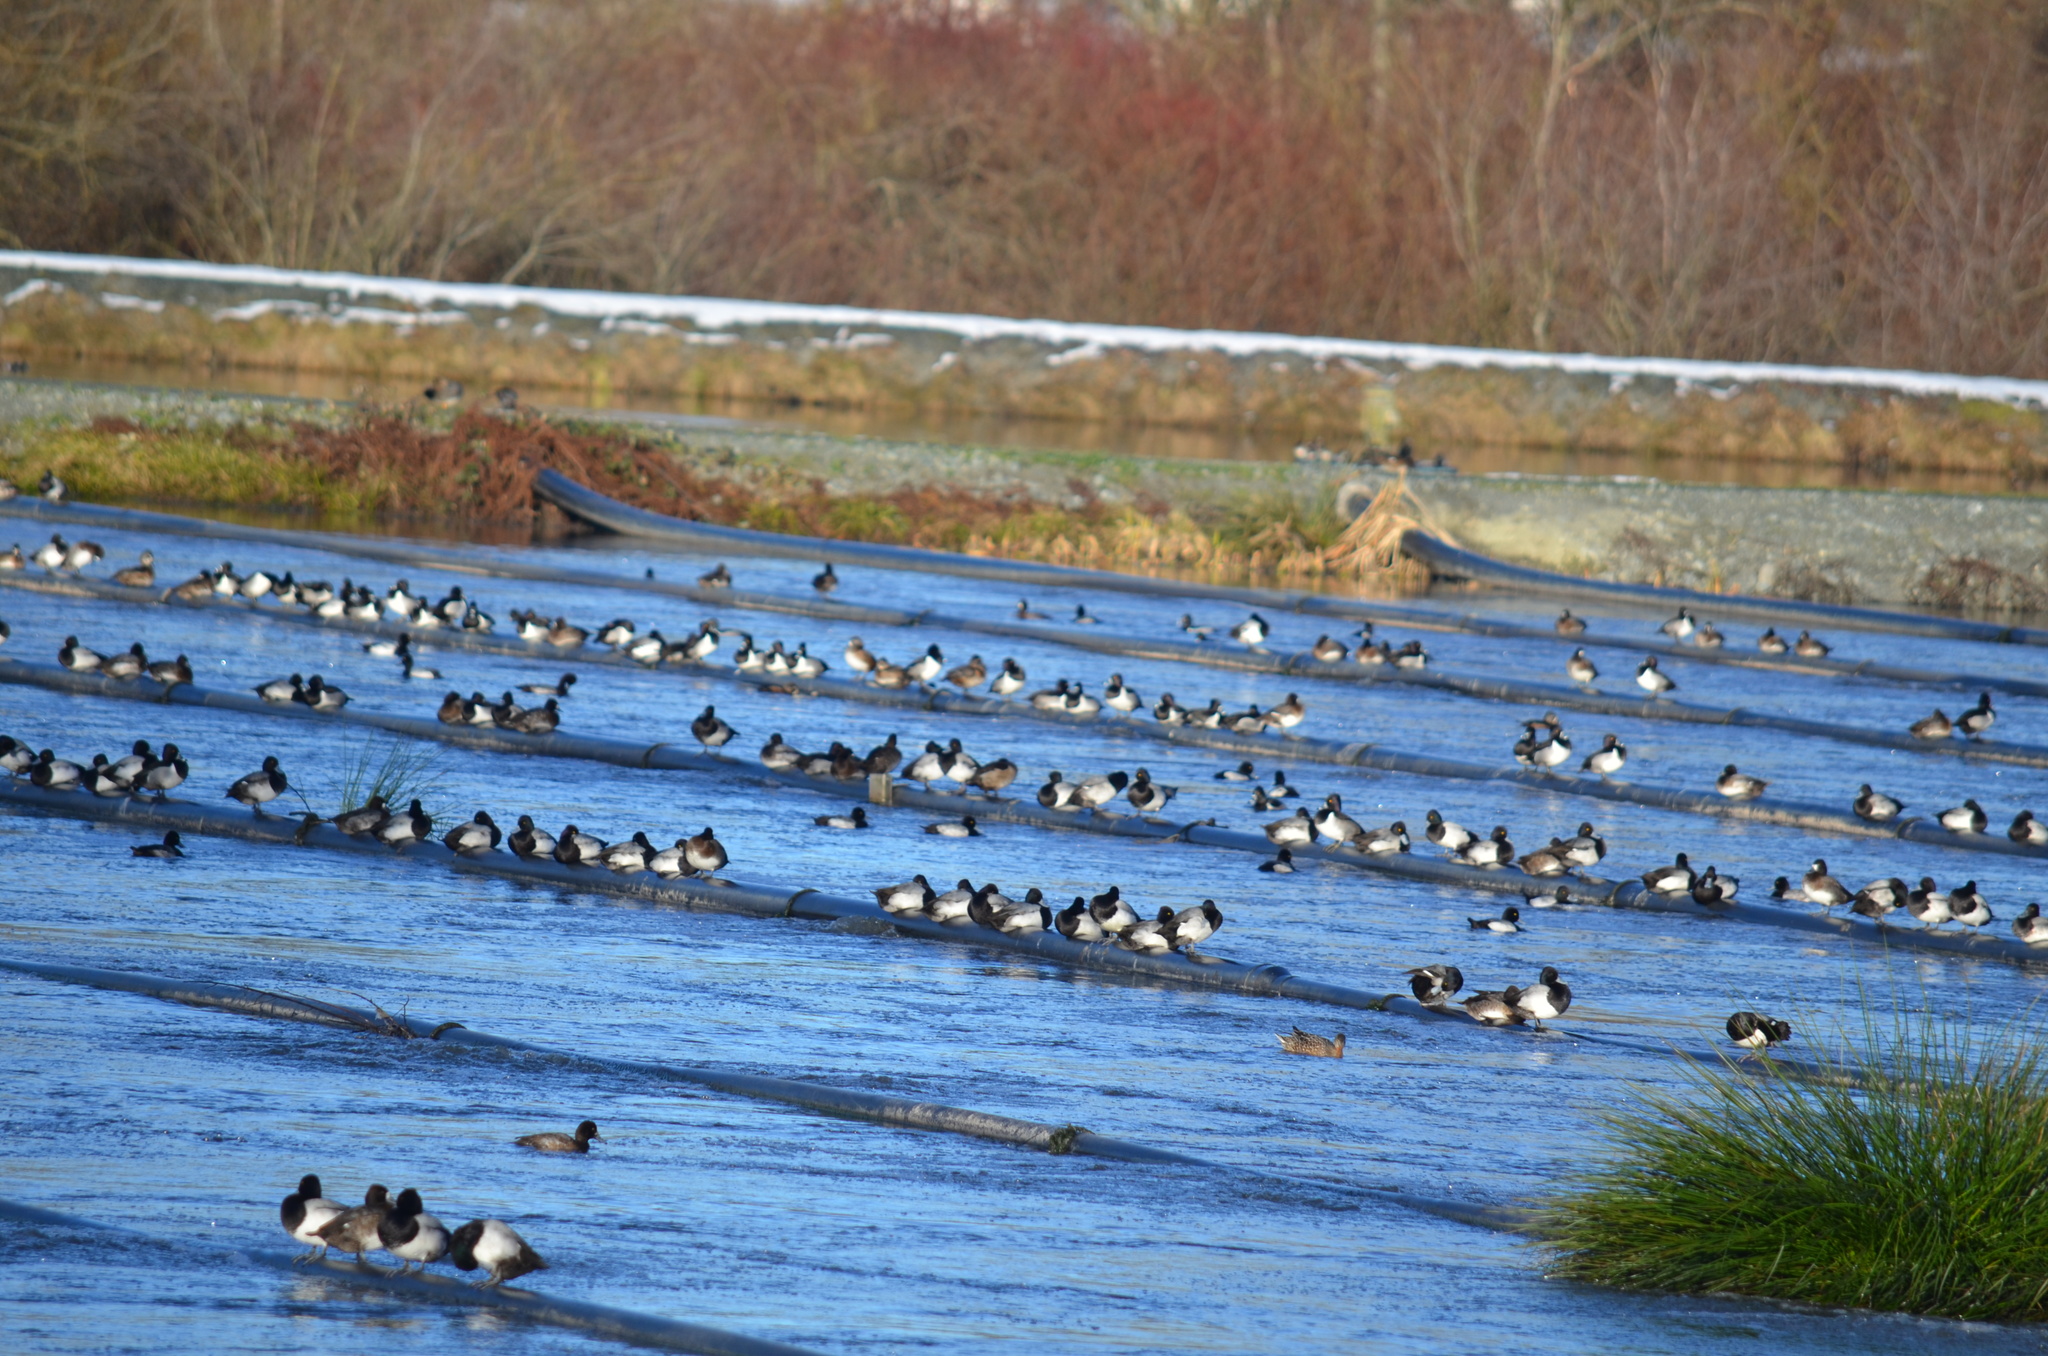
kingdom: Animalia
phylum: Chordata
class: Aves
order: Anseriformes
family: Anatidae
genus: Aythya
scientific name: Aythya affinis
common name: Lesser scaup
